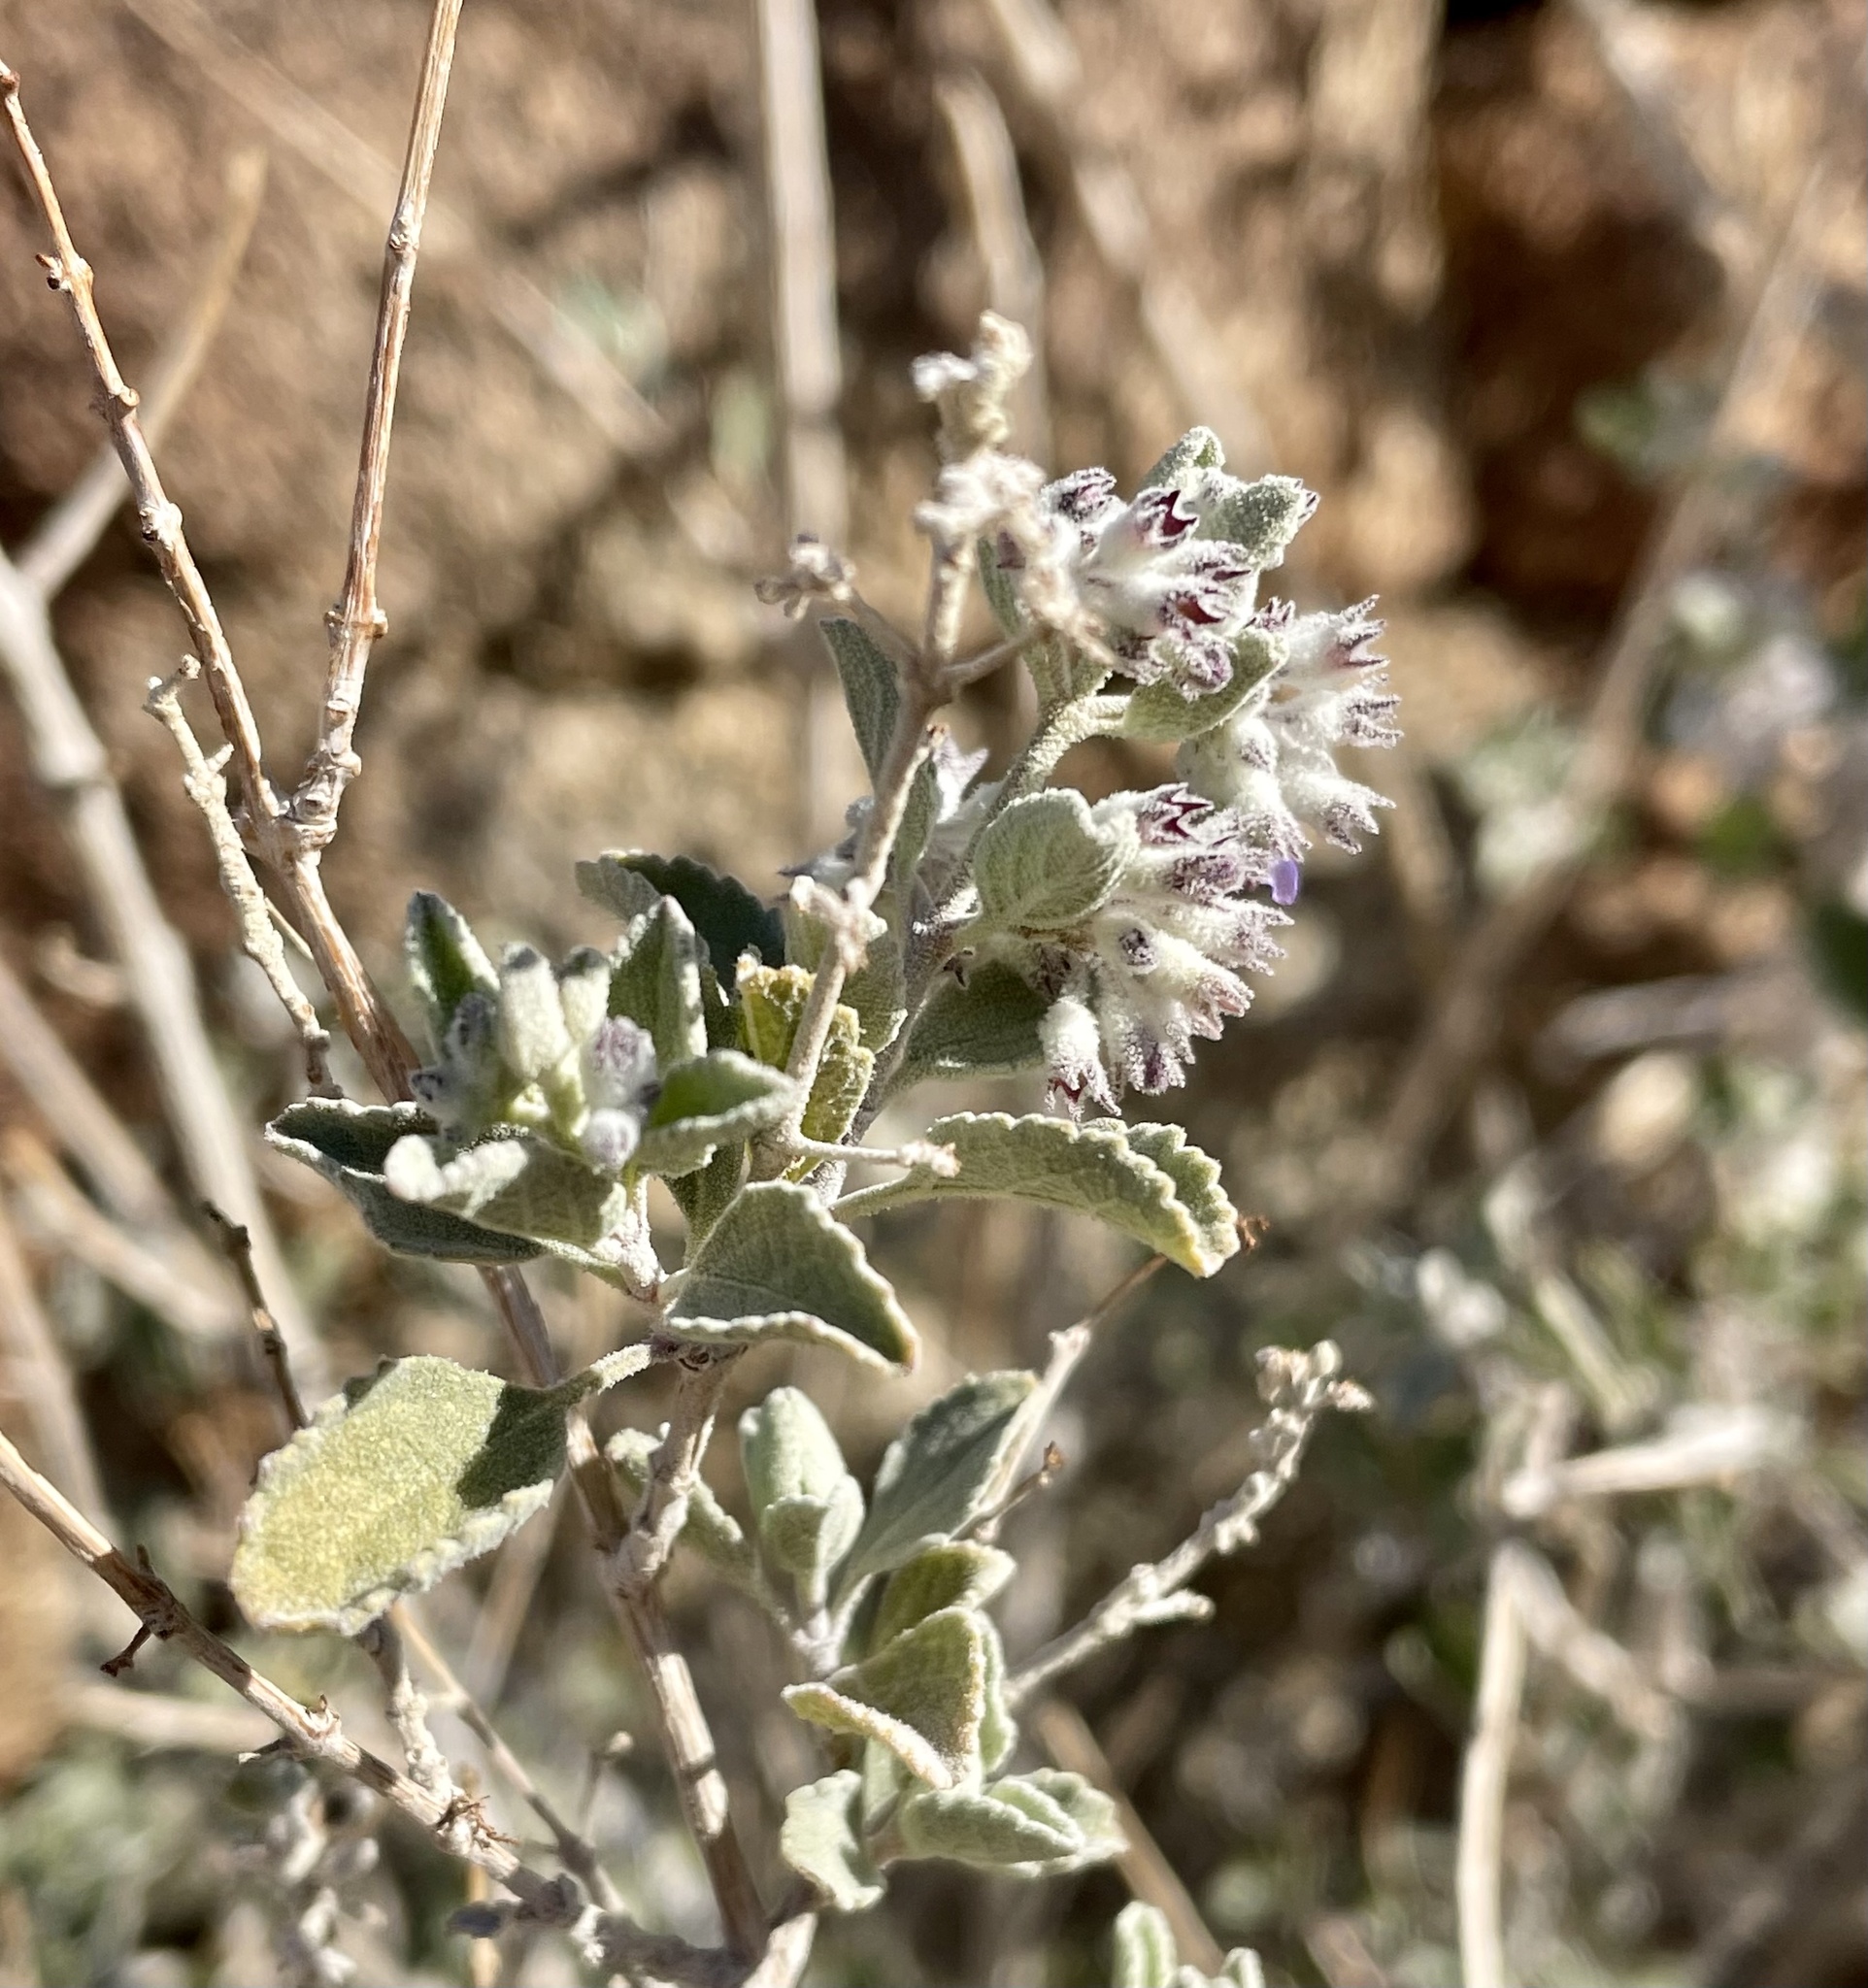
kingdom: Plantae
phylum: Tracheophyta
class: Magnoliopsida
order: Lamiales
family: Lamiaceae
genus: Condea
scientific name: Condea emoryi
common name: Chia
